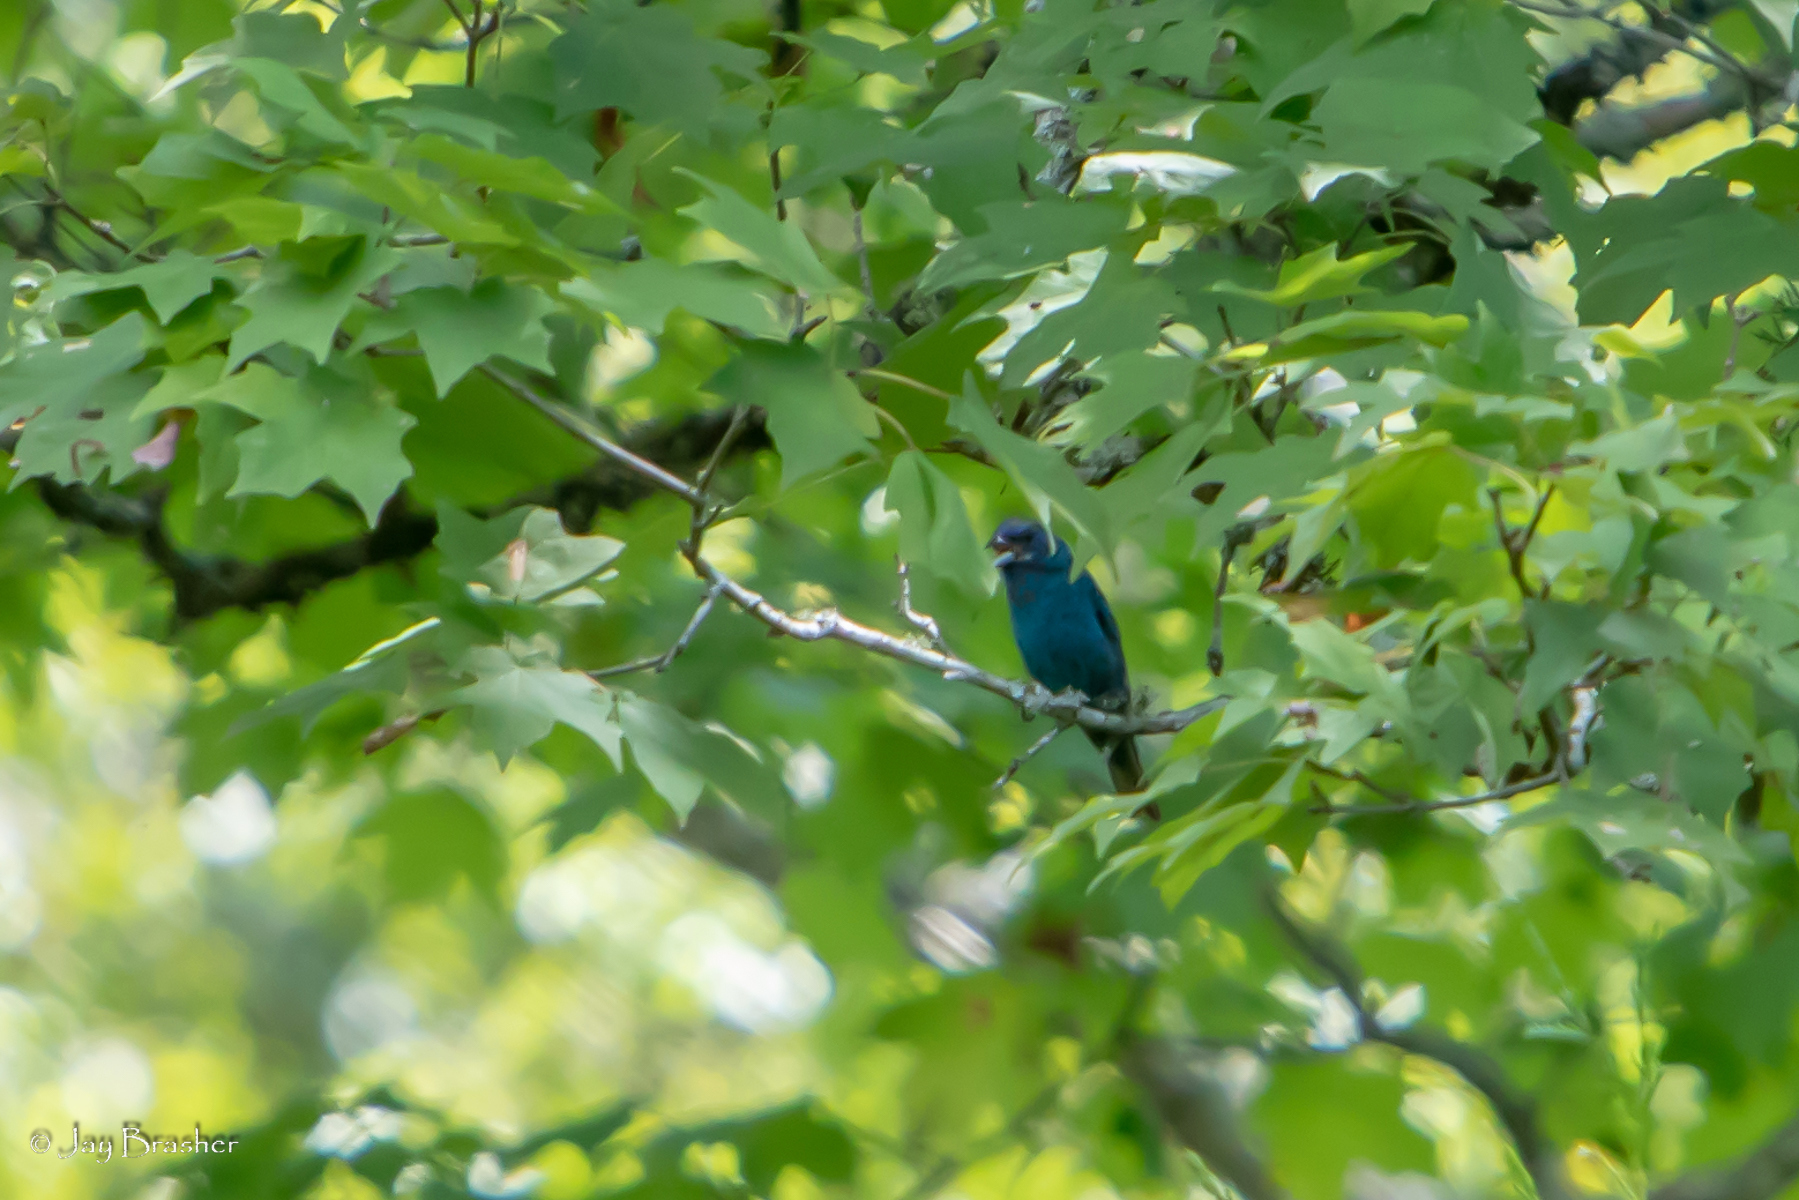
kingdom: Animalia
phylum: Chordata
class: Aves
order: Passeriformes
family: Cardinalidae
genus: Passerina
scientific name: Passerina cyanea
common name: Indigo bunting
